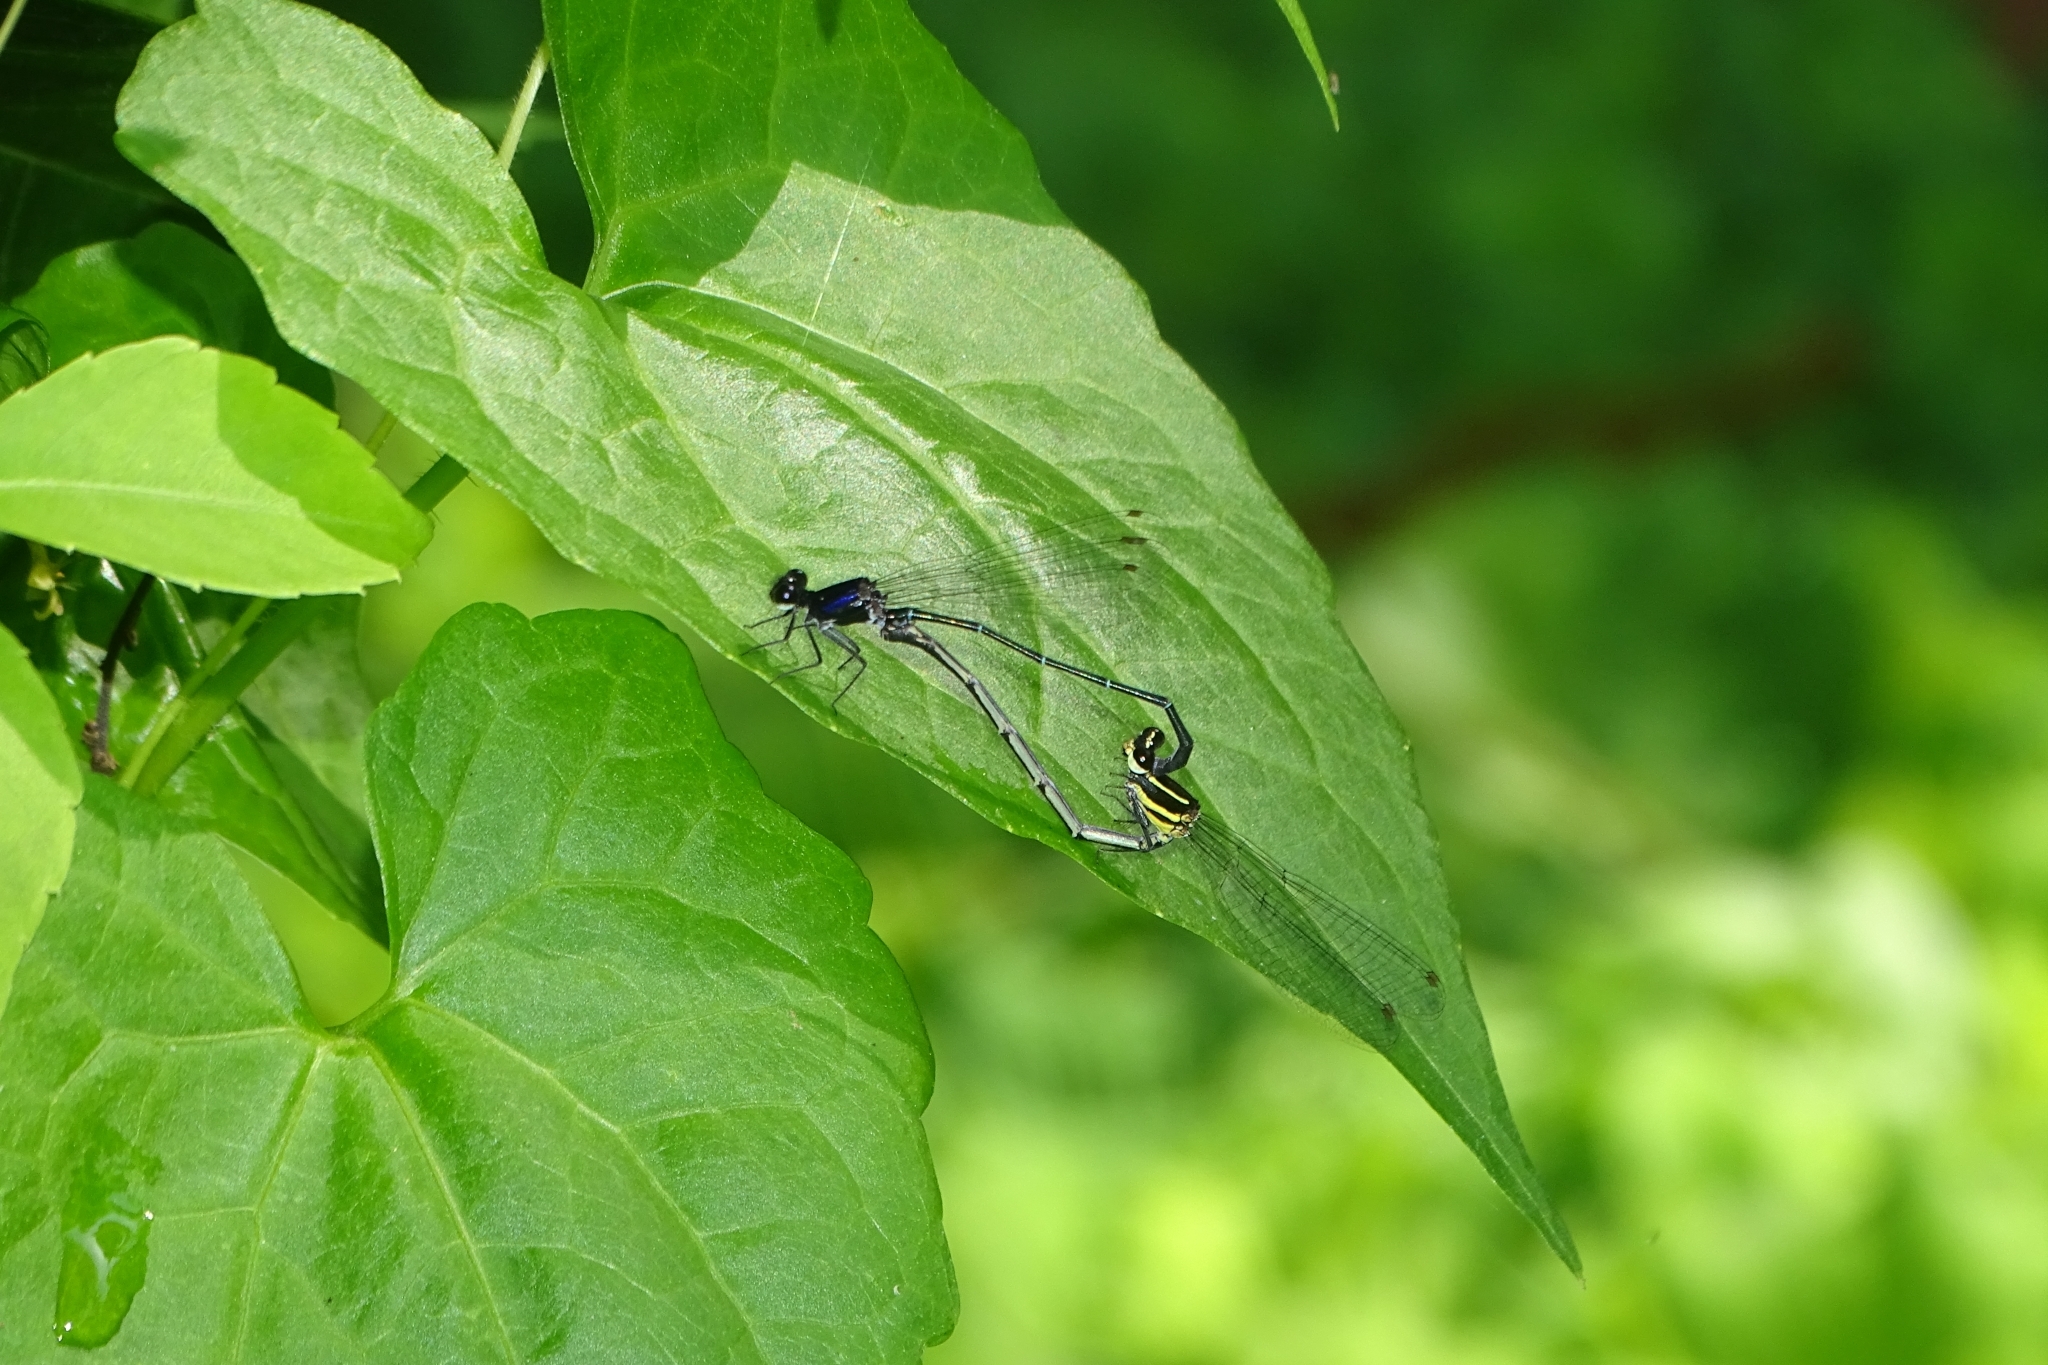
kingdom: Animalia
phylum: Arthropoda
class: Insecta
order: Odonata
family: Platycnemididae
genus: Onychargia
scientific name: Onychargia atrocyana
